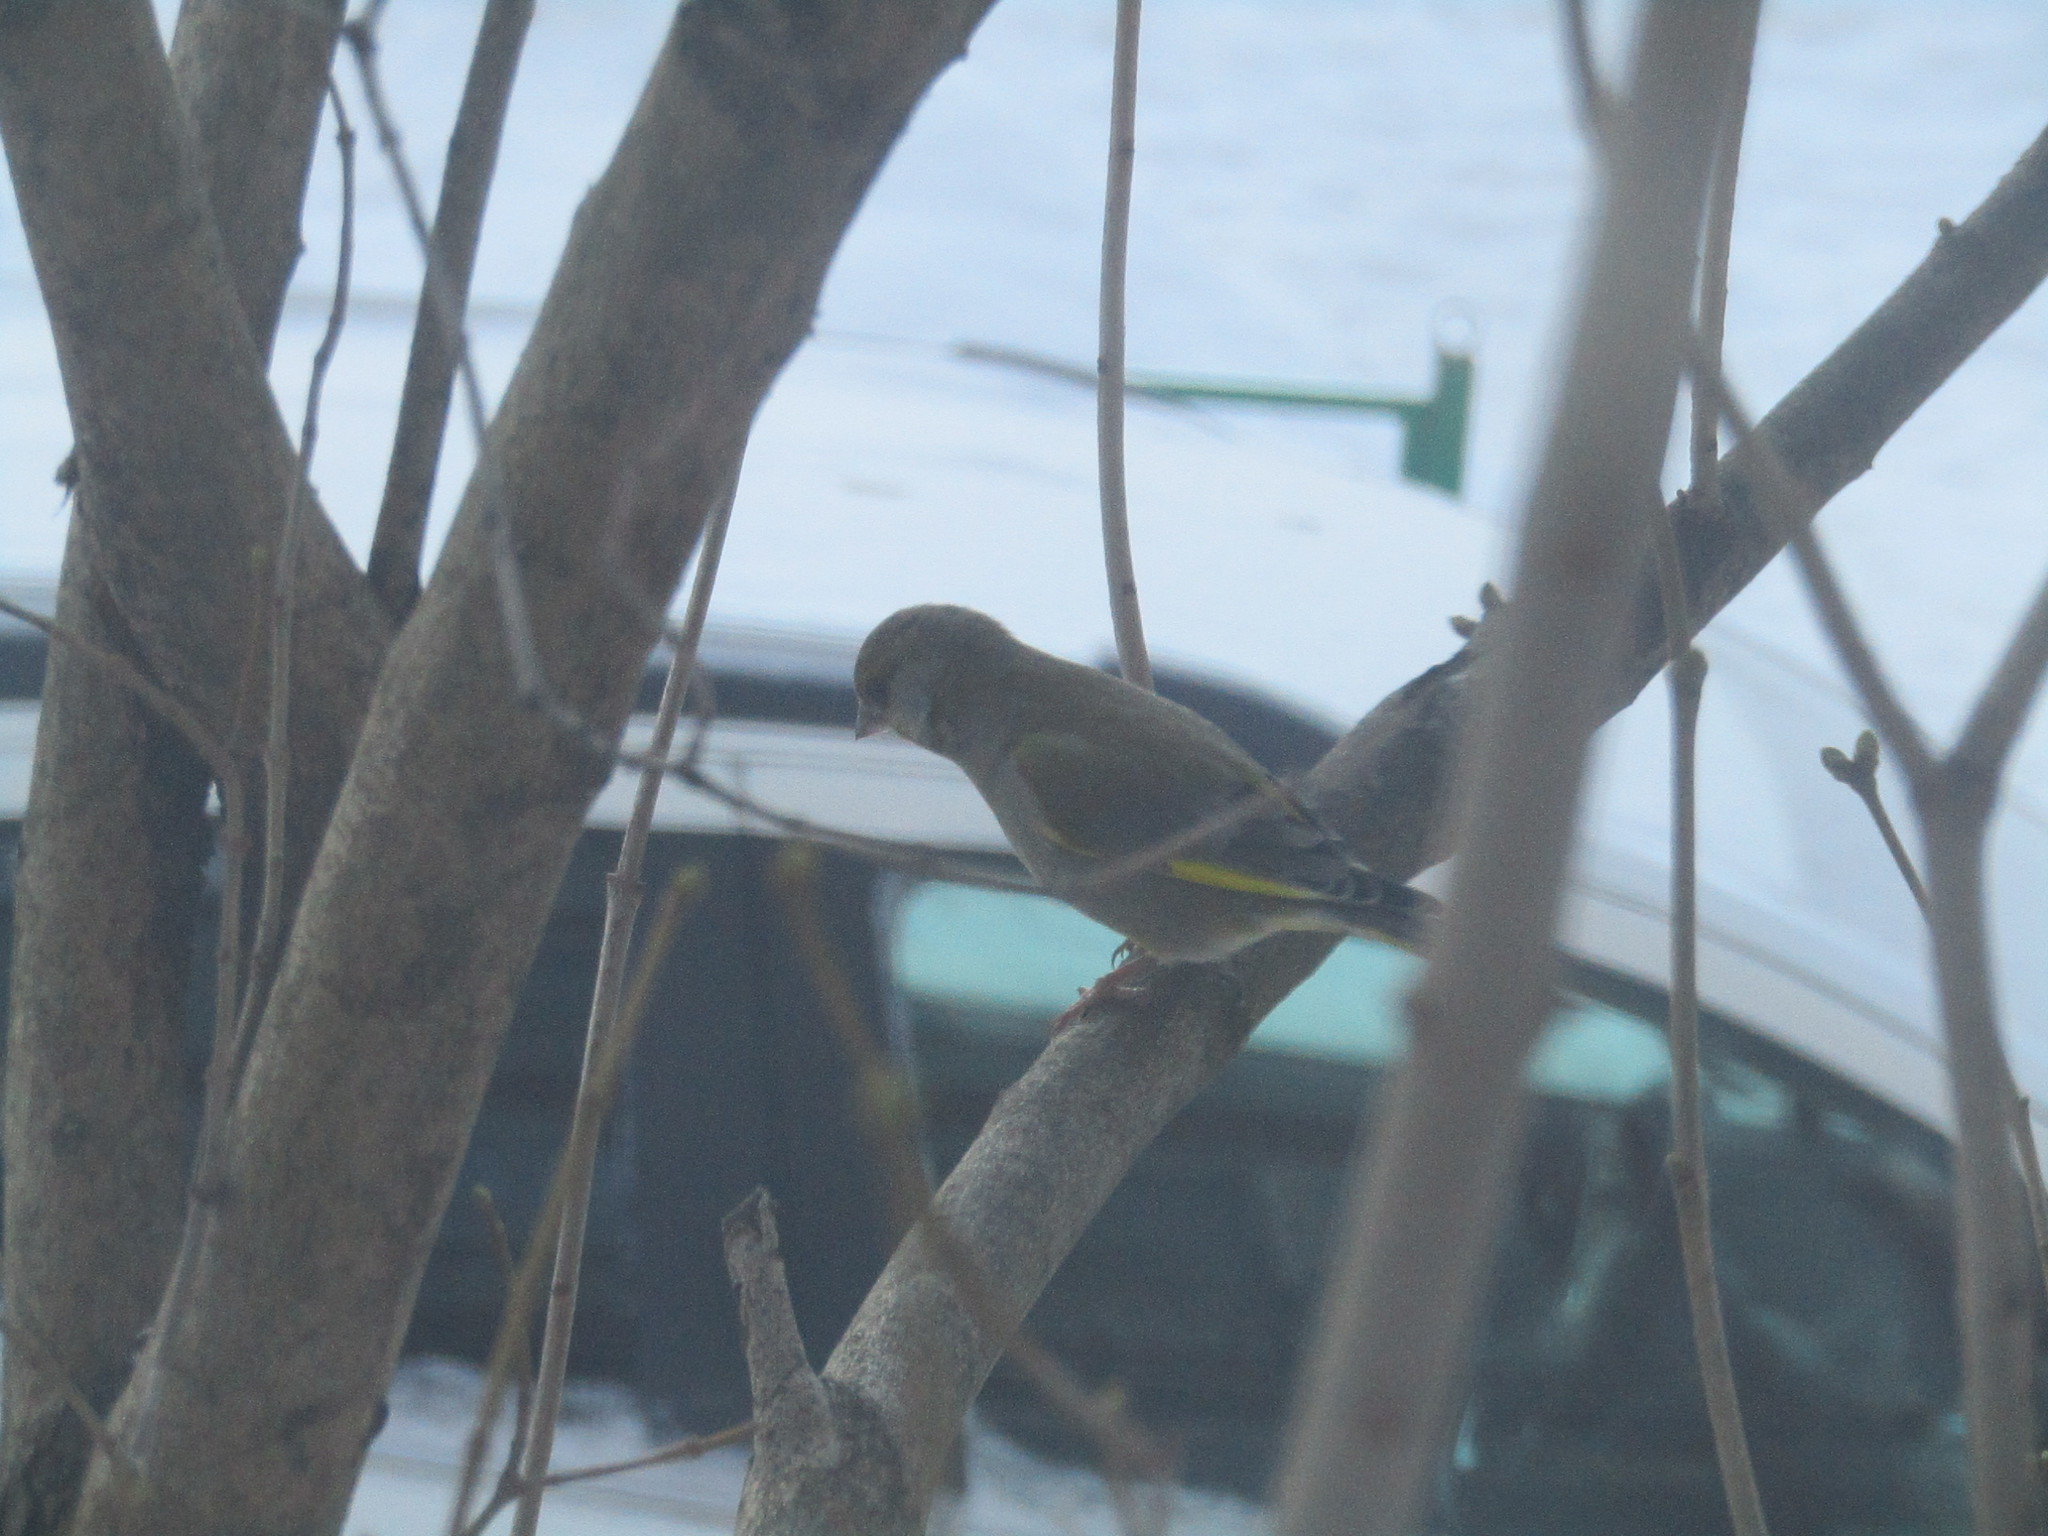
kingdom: Plantae
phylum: Tracheophyta
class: Liliopsida
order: Poales
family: Poaceae
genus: Chloris
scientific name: Chloris chloris
